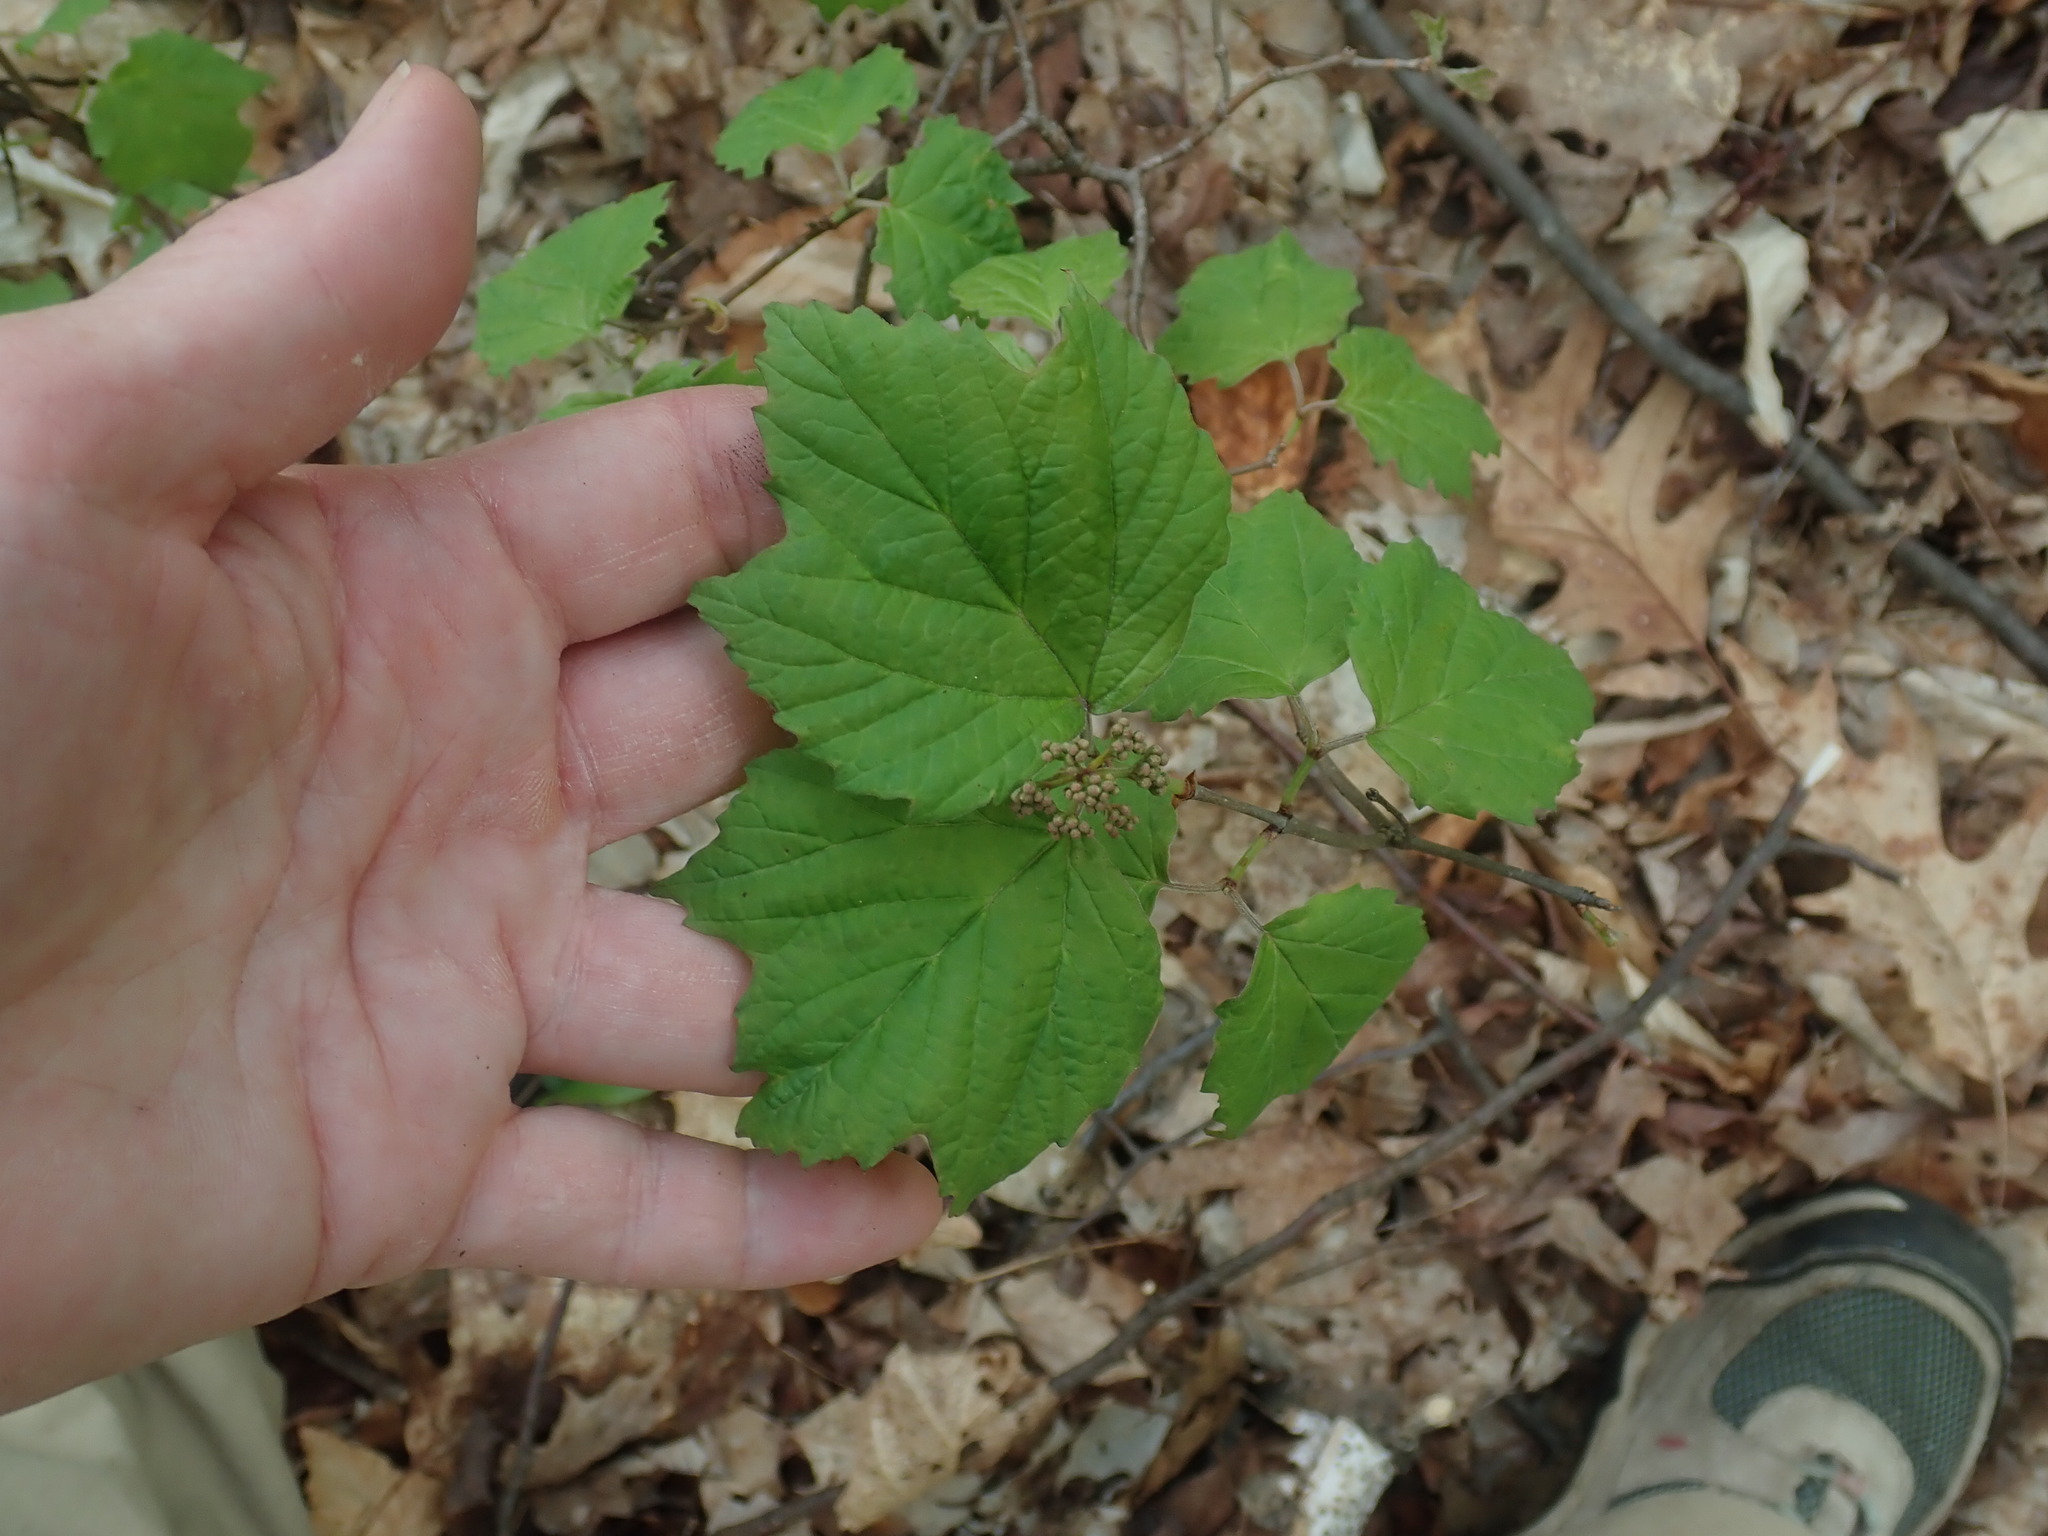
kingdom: Plantae
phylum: Tracheophyta
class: Magnoliopsida
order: Dipsacales
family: Viburnaceae
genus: Viburnum
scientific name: Viburnum acerifolium
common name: Dockmackie
